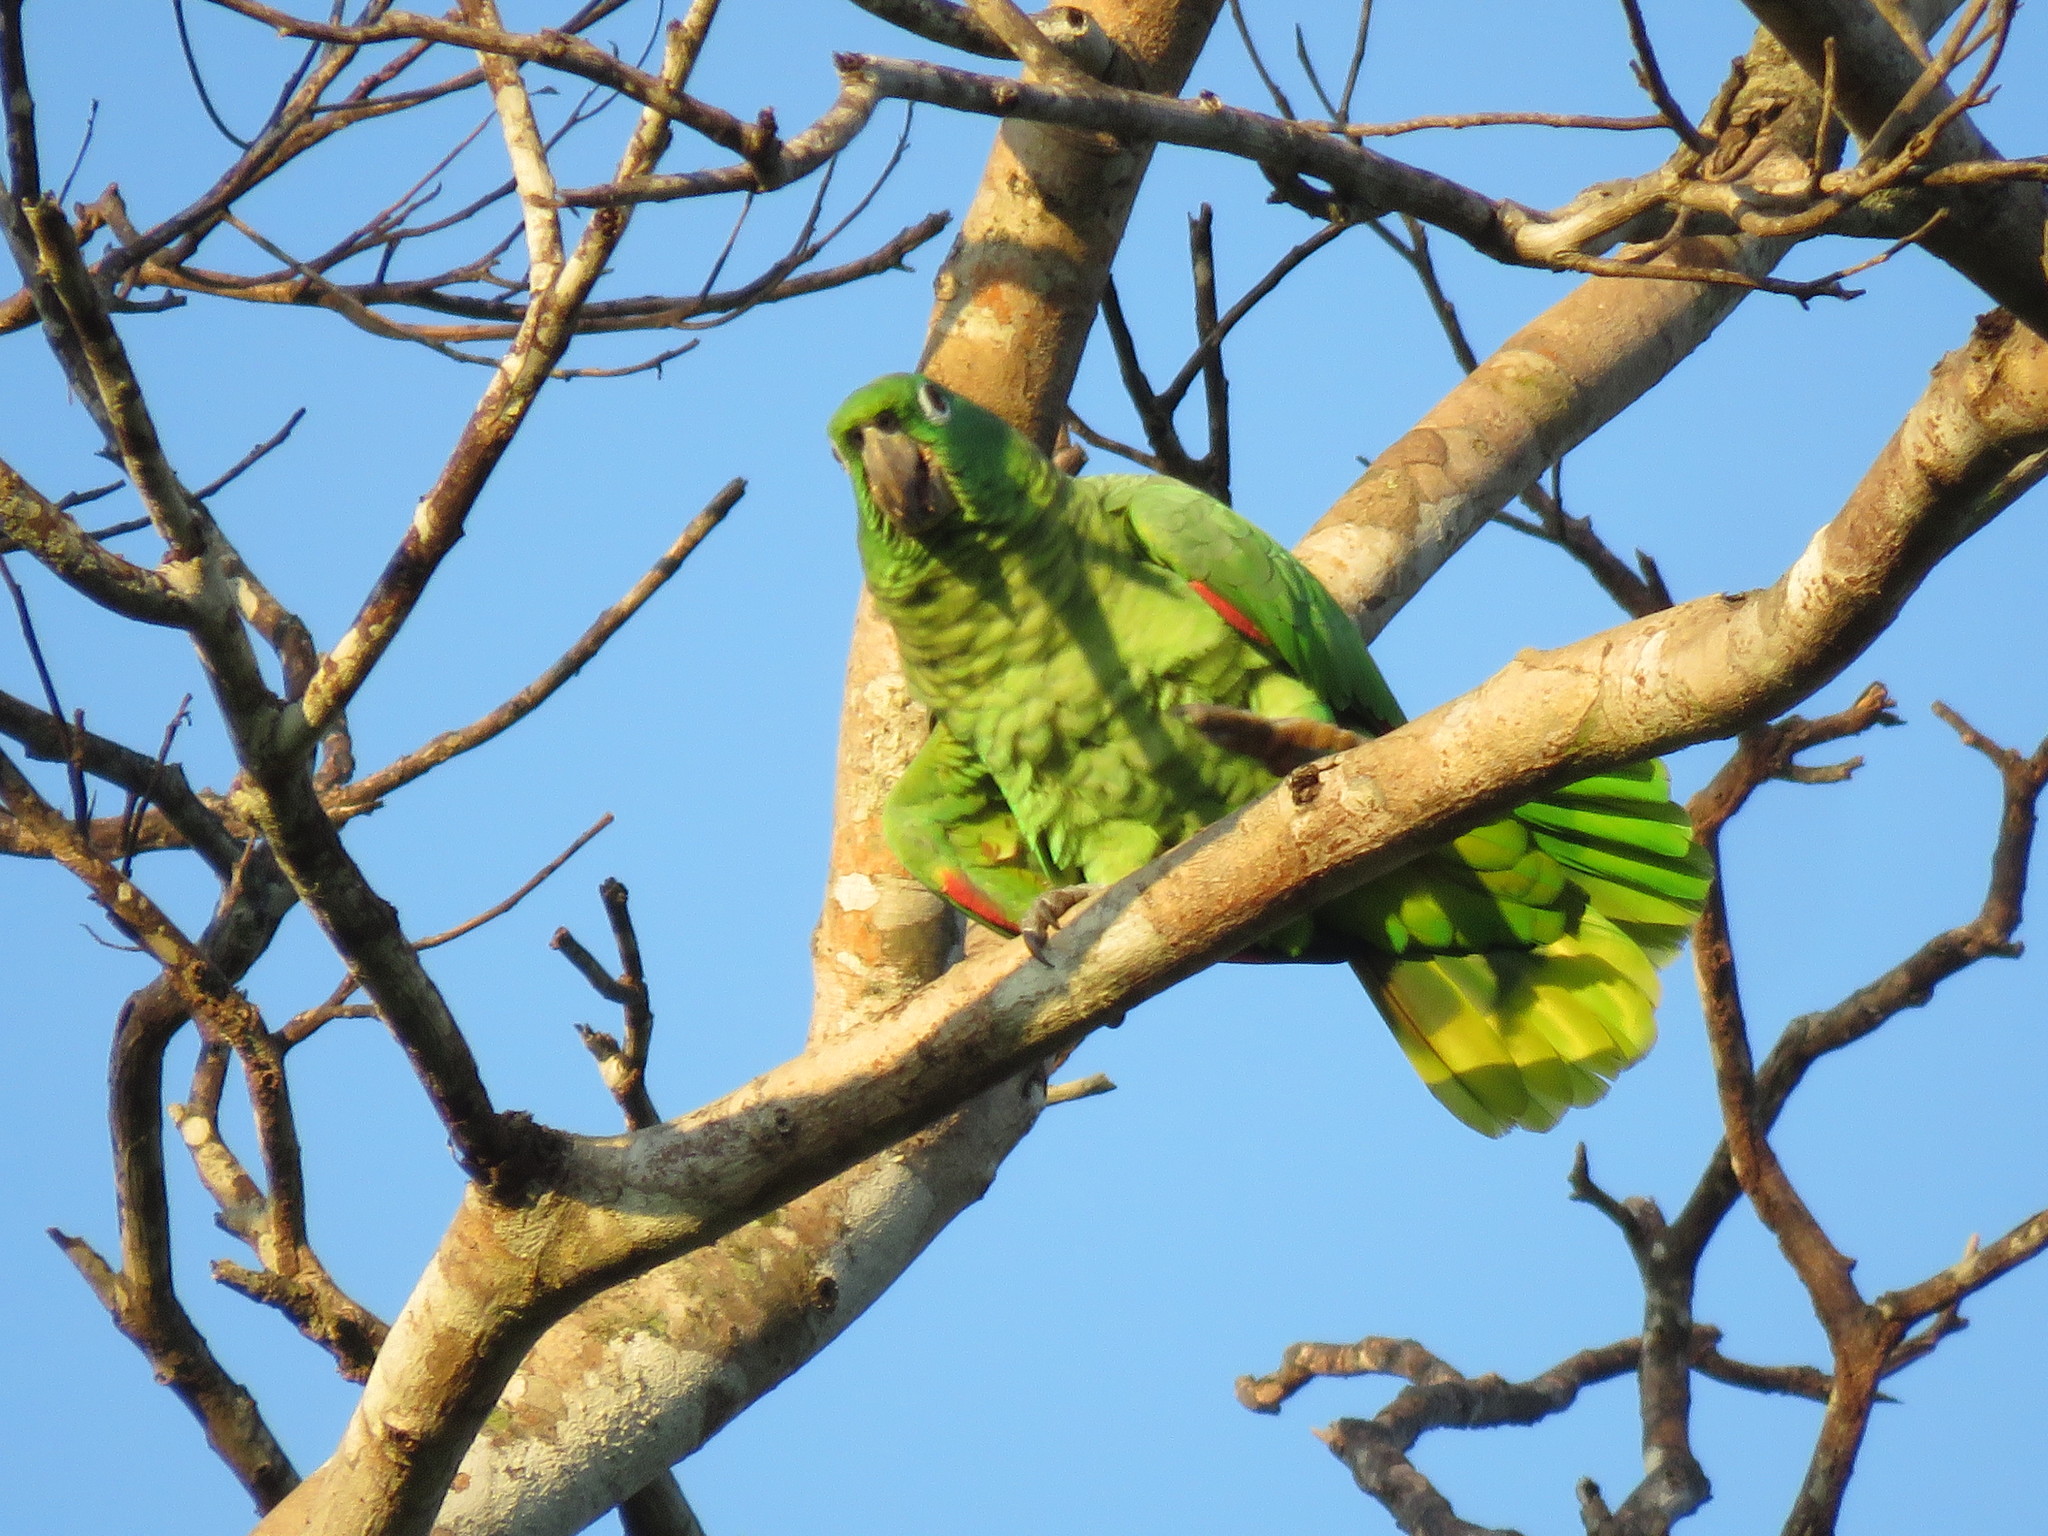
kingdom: Animalia
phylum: Chordata
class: Aves
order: Psittaciformes
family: Psittacidae
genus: Amazona
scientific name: Amazona farinosa
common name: Mealy parrot
